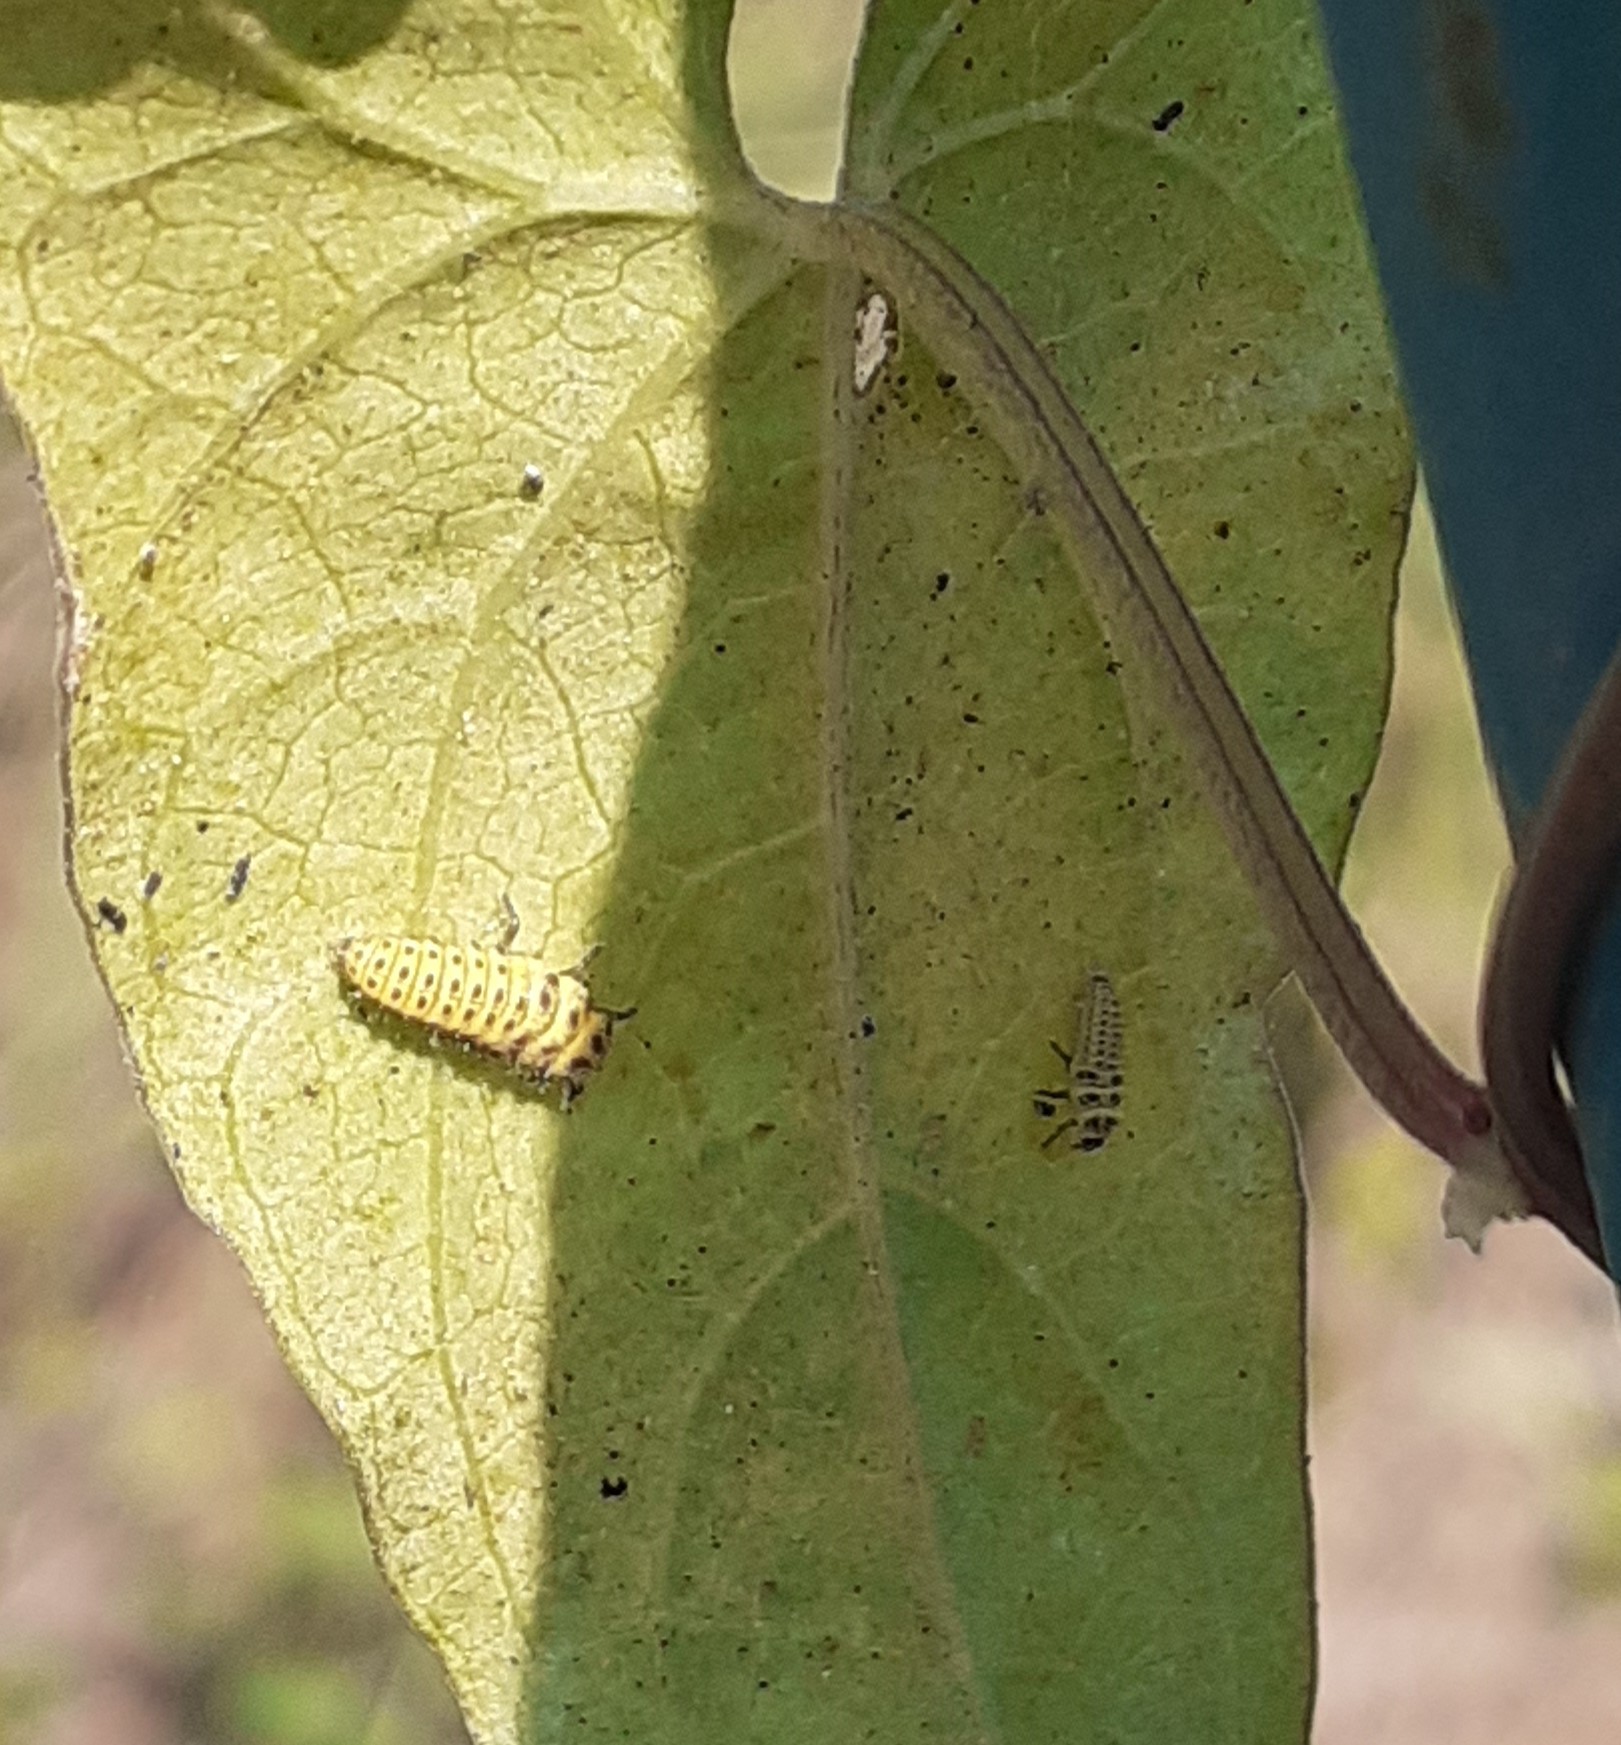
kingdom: Animalia
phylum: Arthropoda
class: Insecta
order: Coleoptera
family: Coccinellidae
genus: Psyllobora
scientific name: Psyllobora vigintiduopunctata
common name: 22-spot ladybird
